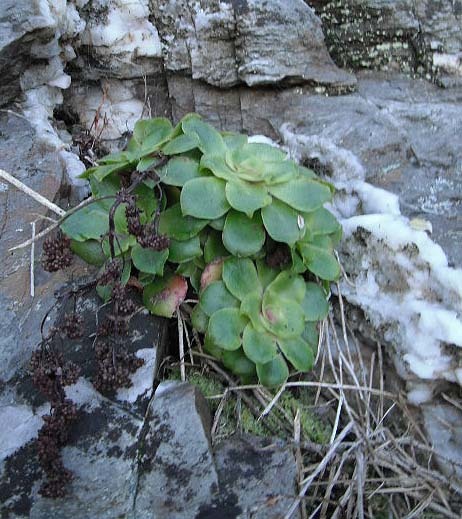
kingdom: Plantae
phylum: Tracheophyta
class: Magnoliopsida
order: Saxifragales
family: Crassulaceae
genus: Crassula
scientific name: Crassula orbicularis
